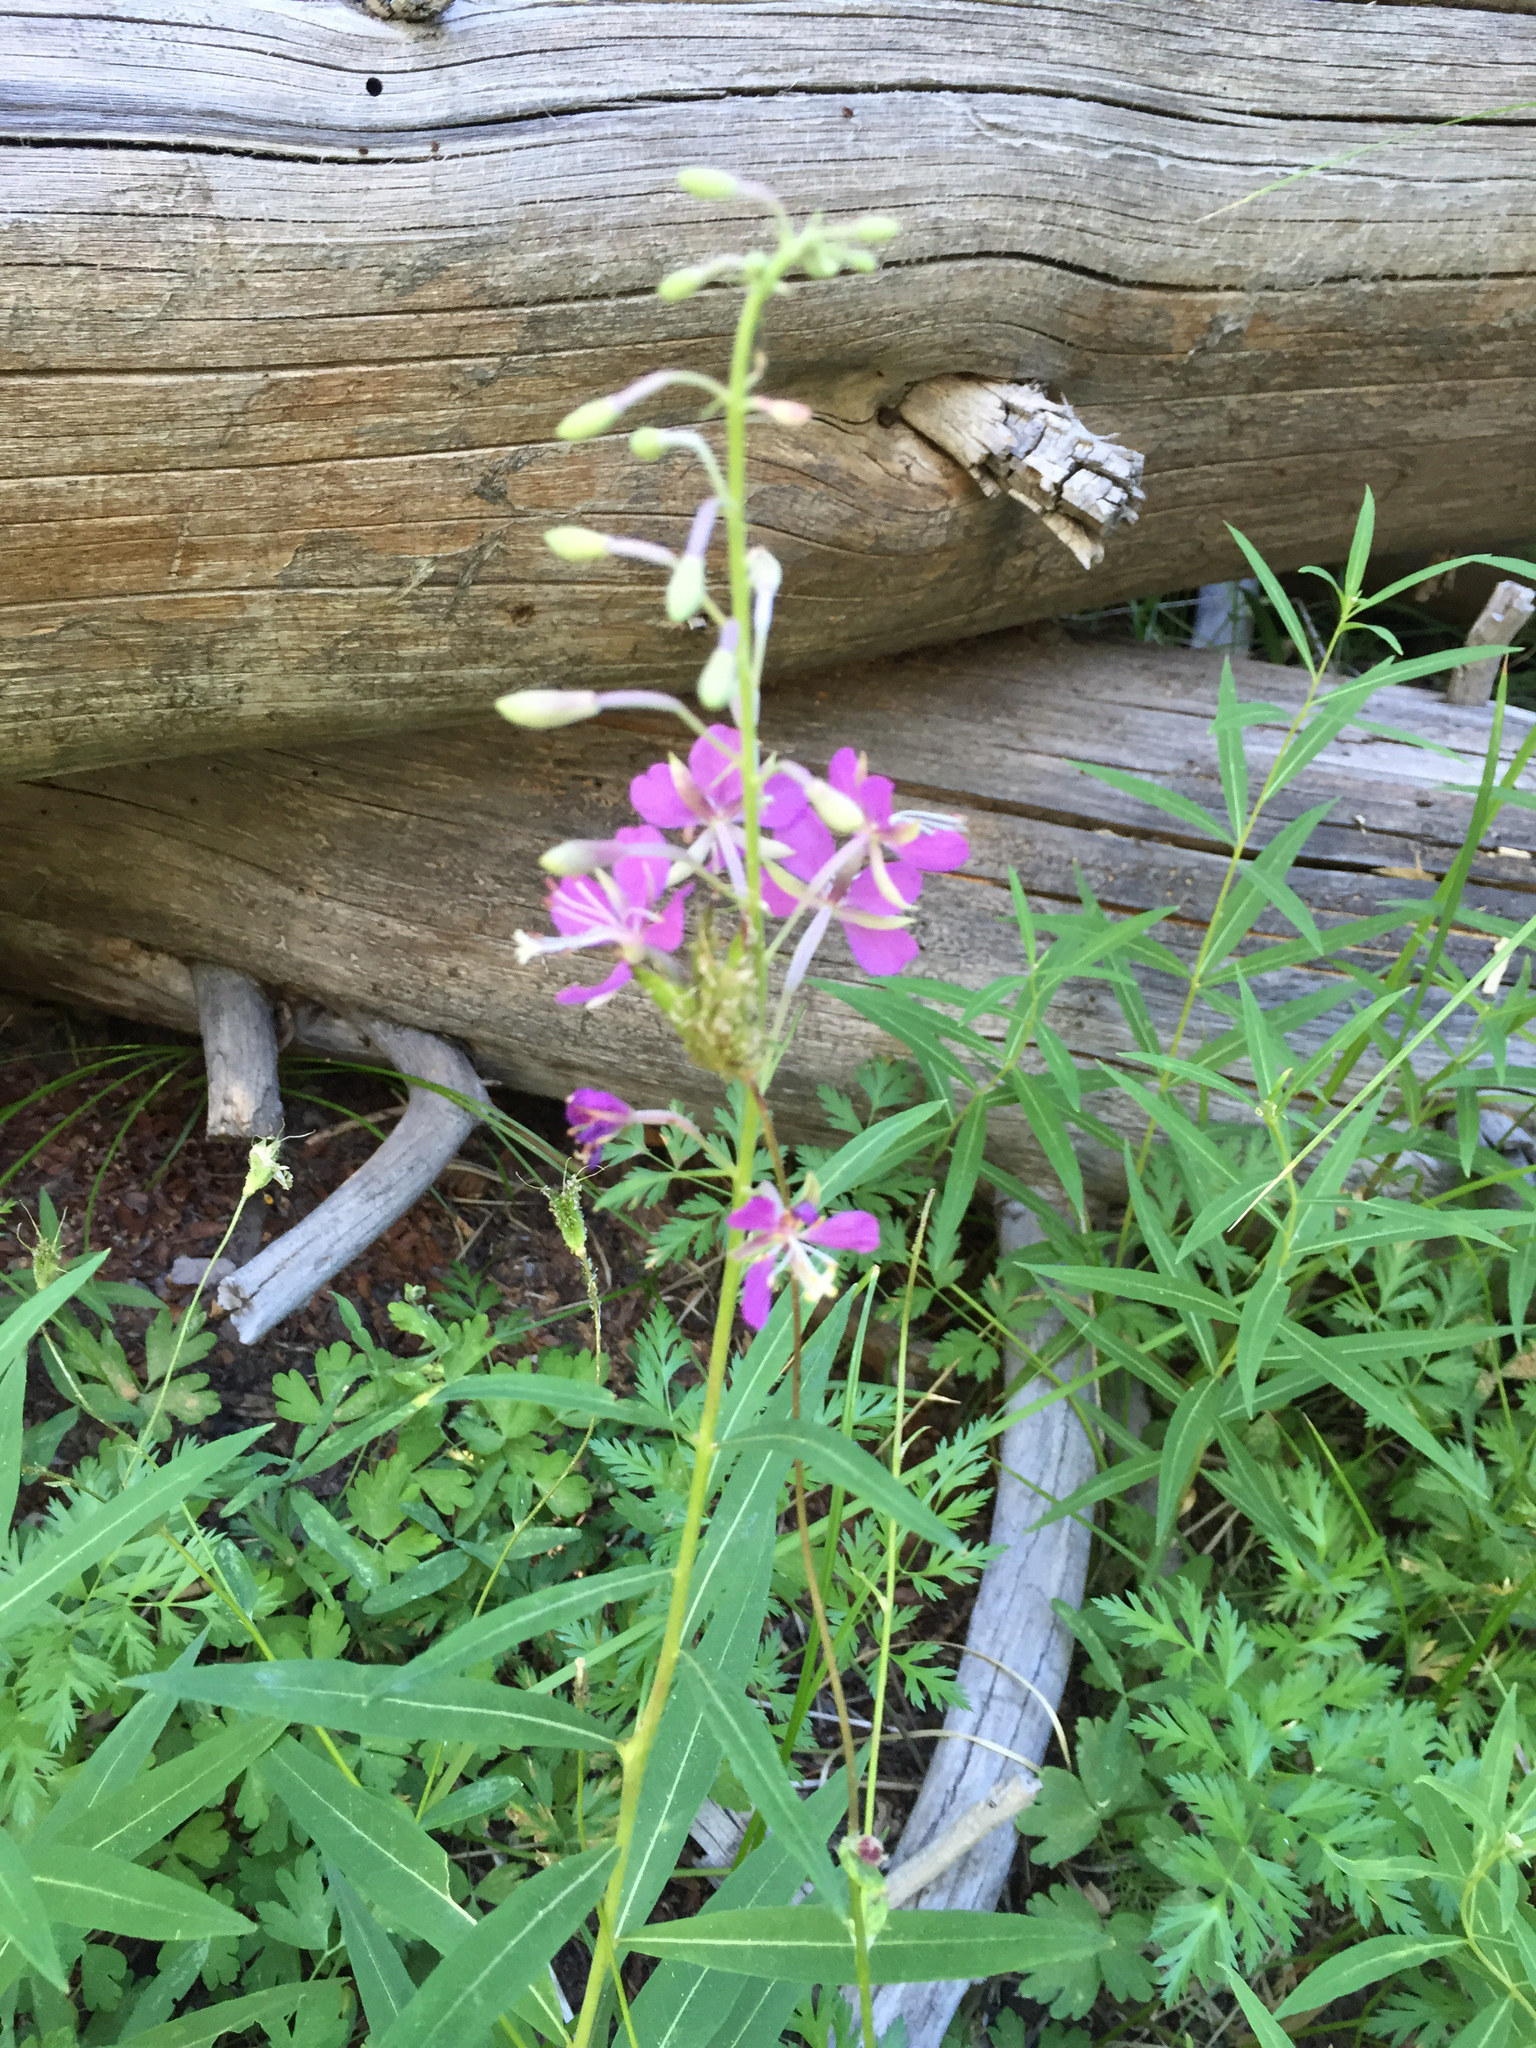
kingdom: Plantae
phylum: Tracheophyta
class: Magnoliopsida
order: Myrtales
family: Onagraceae
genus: Chamaenerion
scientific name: Chamaenerion angustifolium
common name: Fireweed
